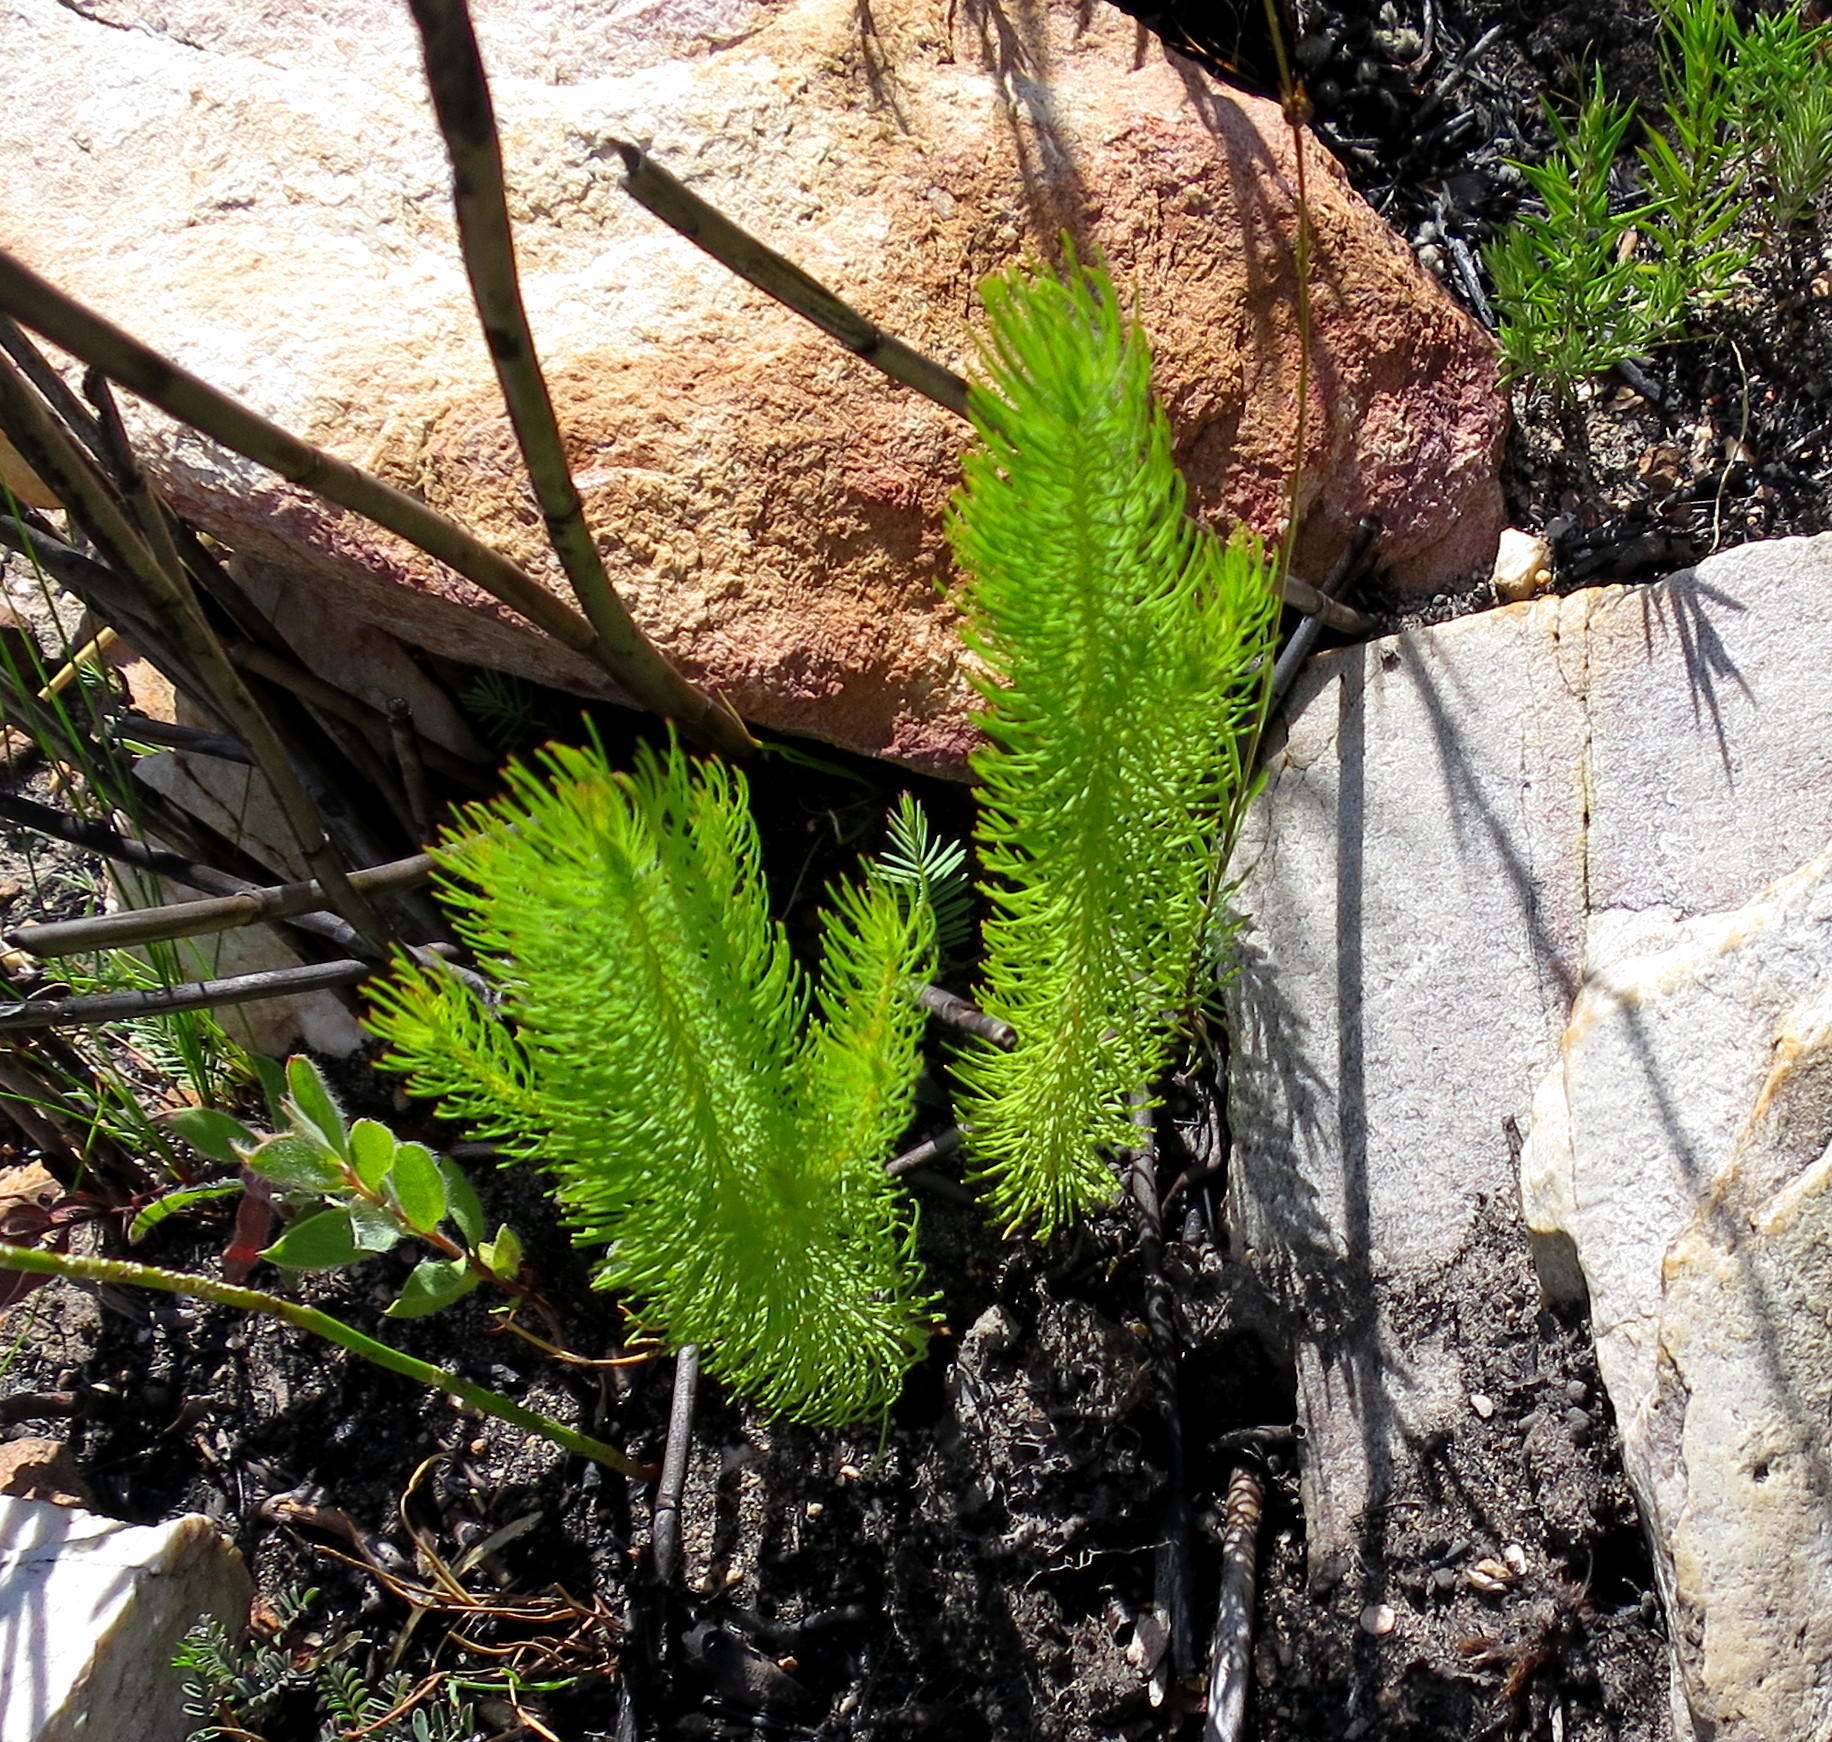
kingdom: Plantae
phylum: Tracheophyta
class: Magnoliopsida
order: Proteales
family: Proteaceae
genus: Leucadendron
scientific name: Leucadendron ericifolium
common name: Erica-leaved conebush
